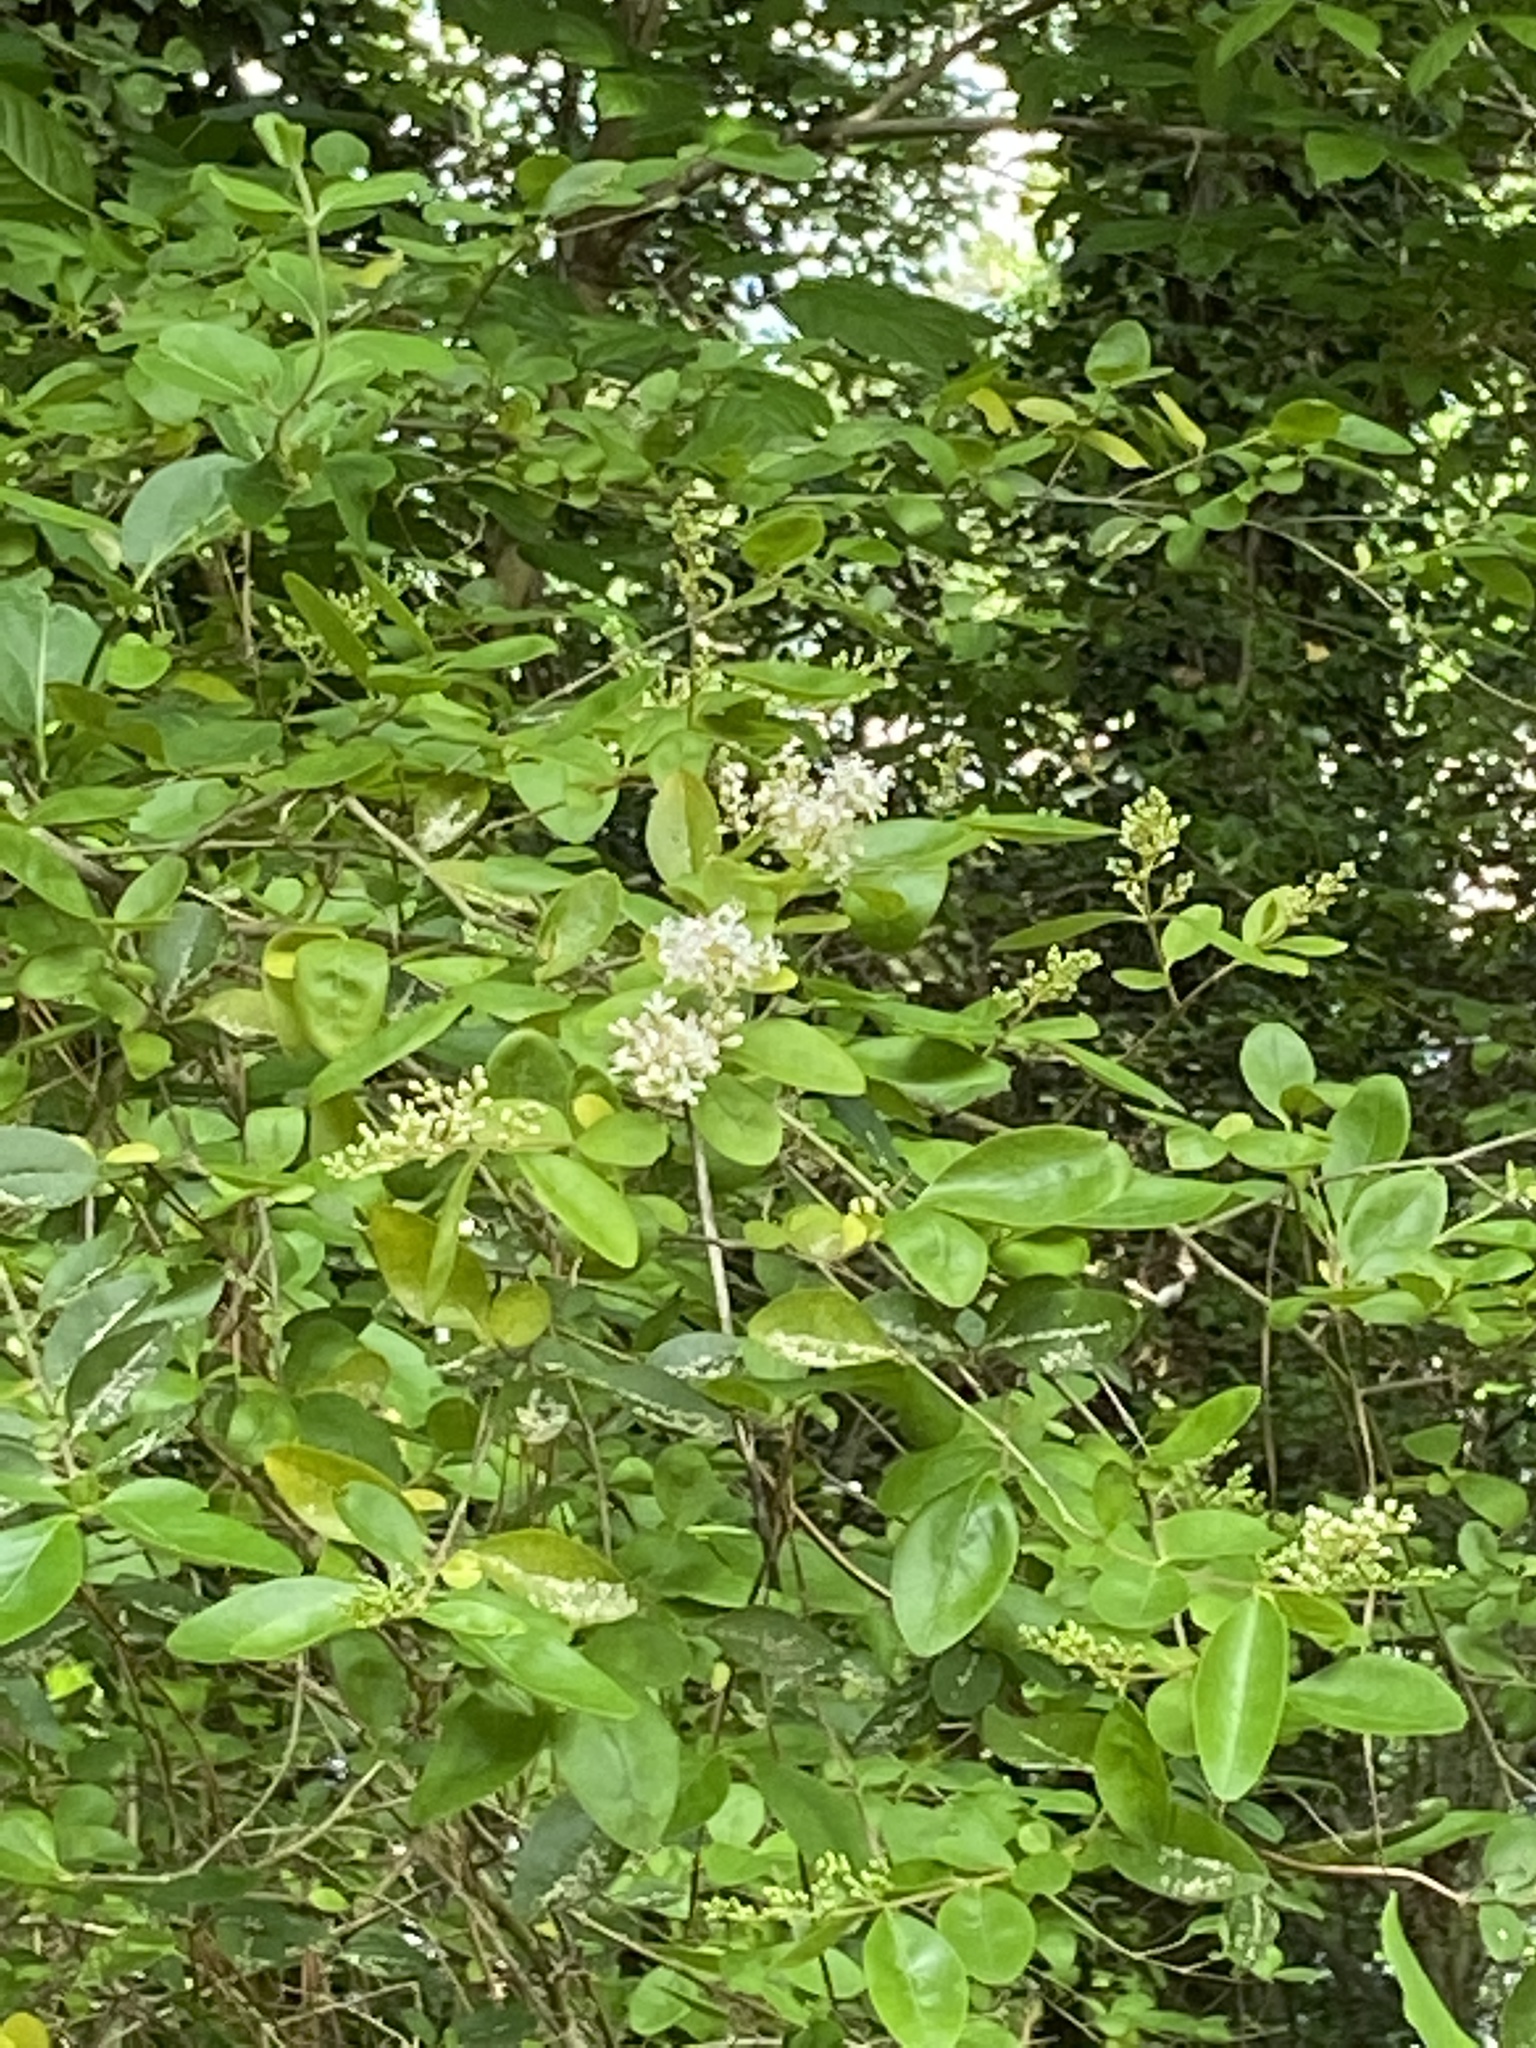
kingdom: Plantae
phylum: Tracheophyta
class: Magnoliopsida
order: Lamiales
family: Oleaceae
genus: Ligustrum
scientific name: Ligustrum sinense
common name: Chinese privet
